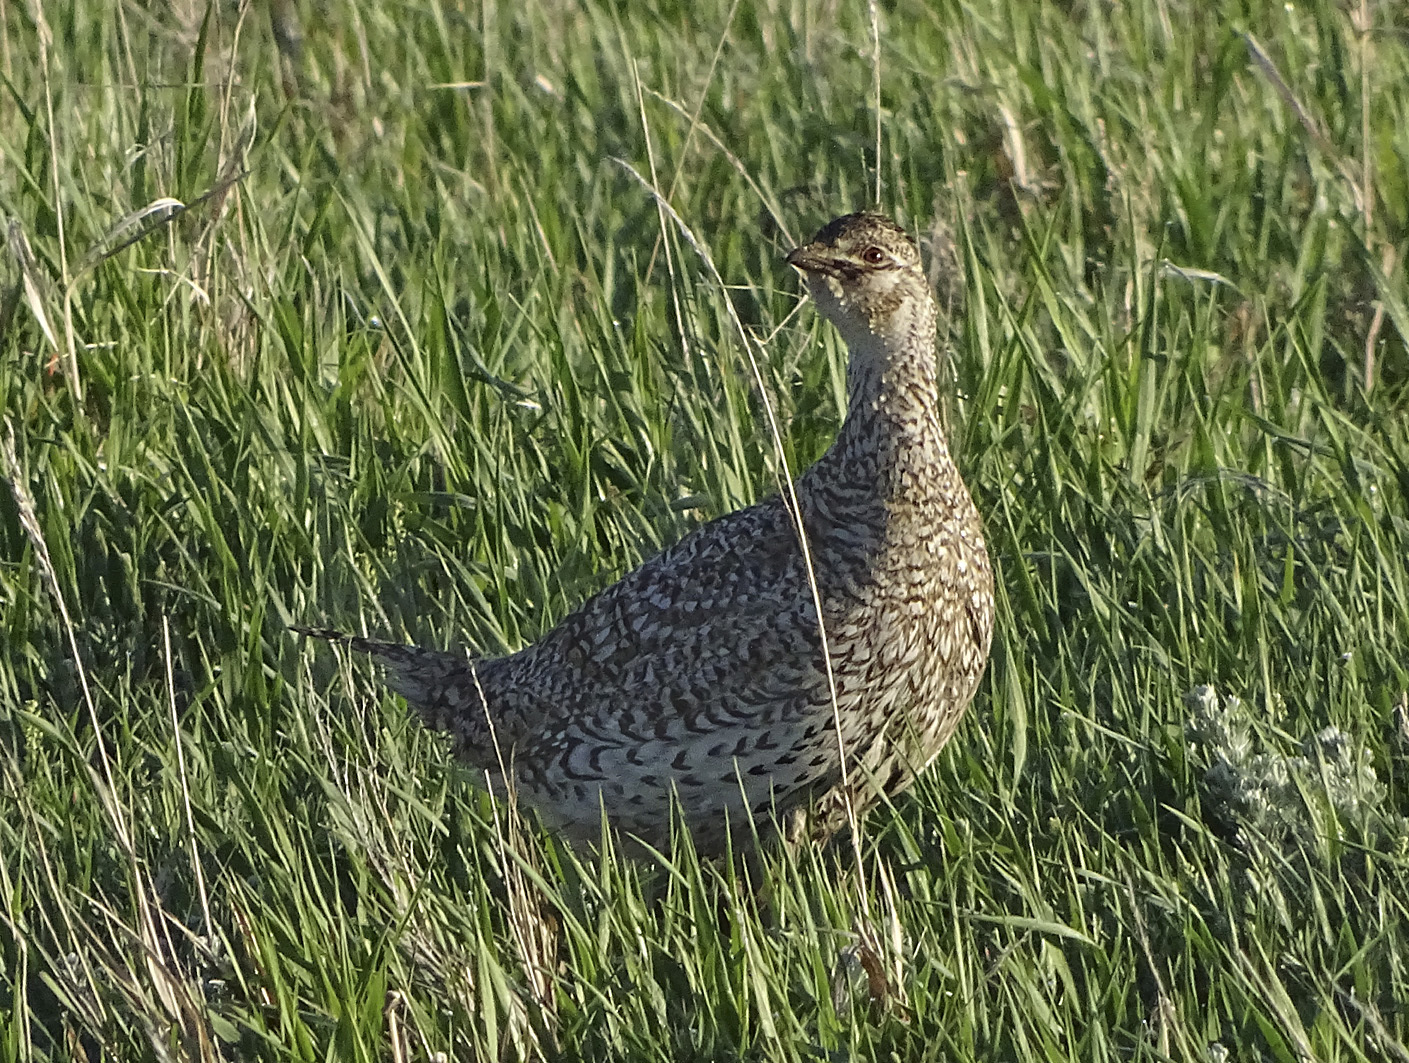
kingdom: Animalia
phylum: Chordata
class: Aves
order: Galliformes
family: Phasianidae
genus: Tympanuchus
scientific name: Tympanuchus phasianellus
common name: Sharp-tailed grouse
